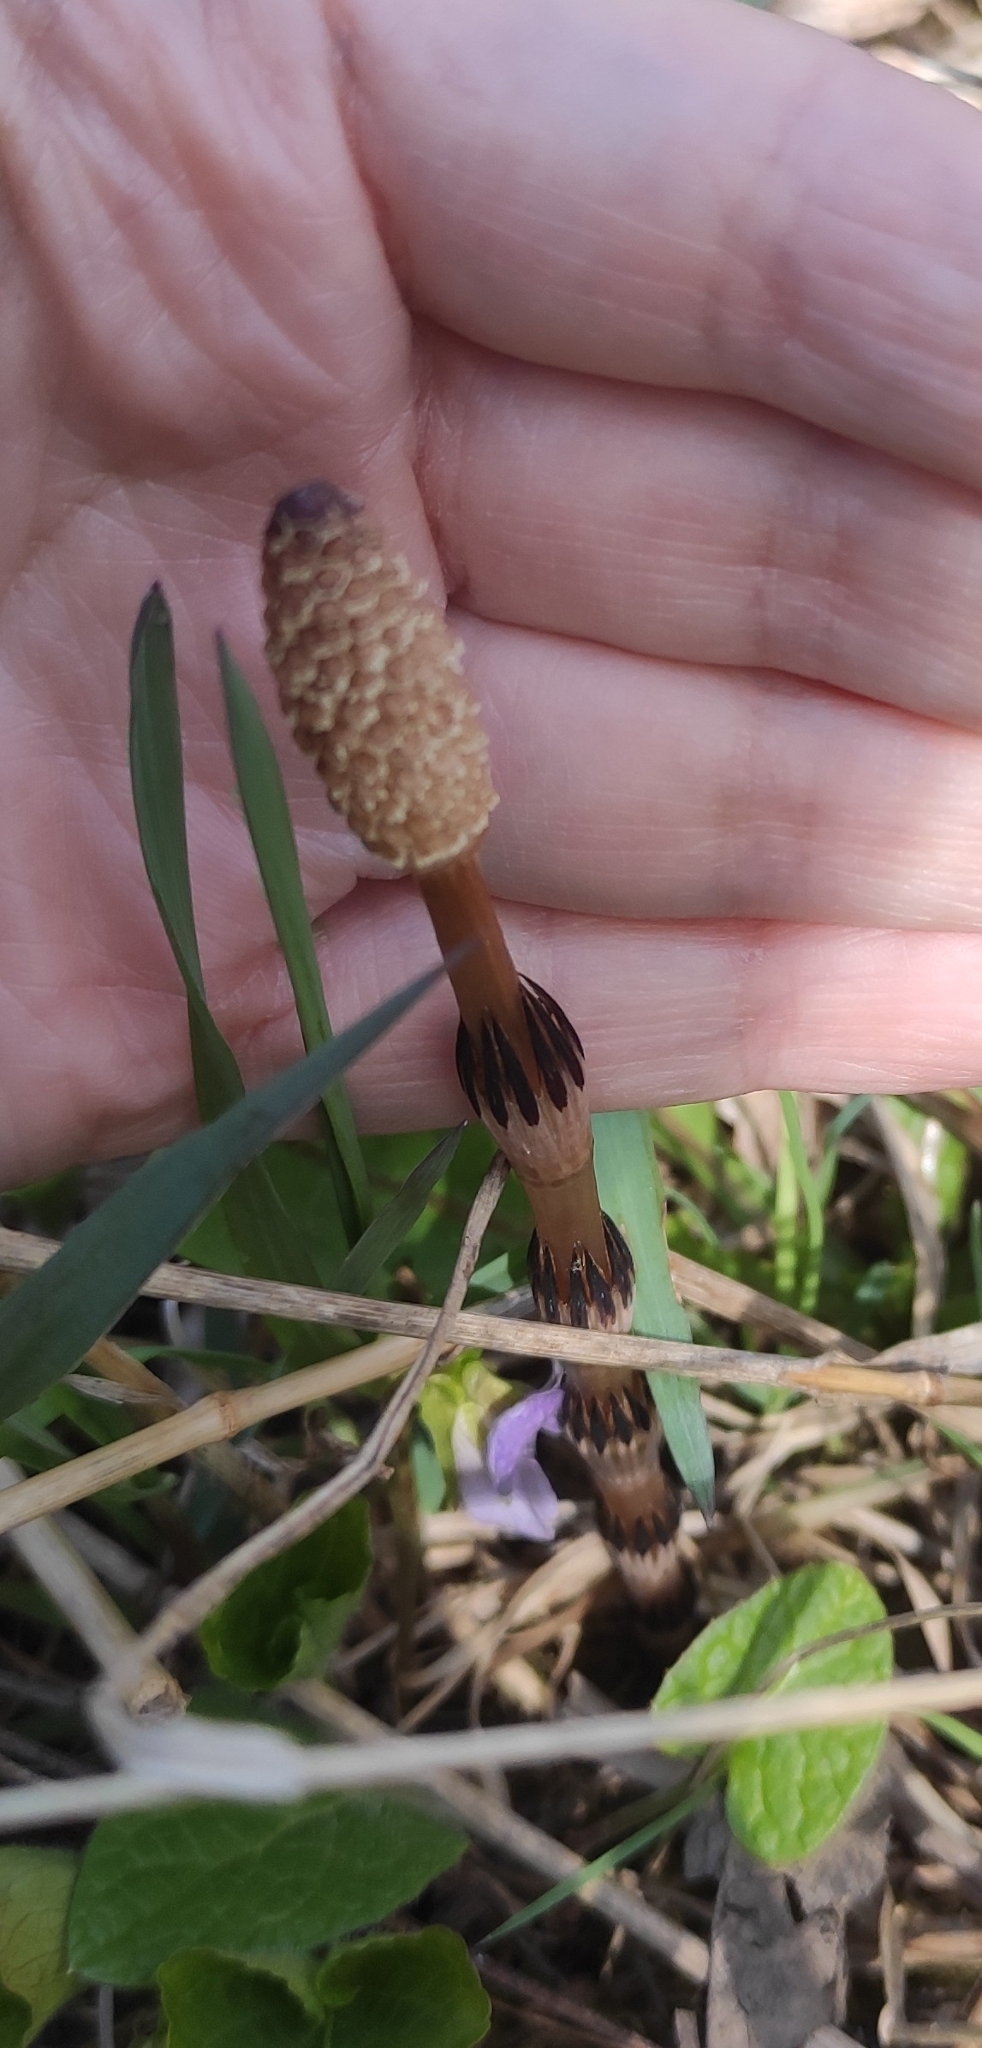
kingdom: Plantae
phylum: Tracheophyta
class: Polypodiopsida
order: Equisetales
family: Equisetaceae
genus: Equisetum
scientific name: Equisetum arvense
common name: Field horsetail
